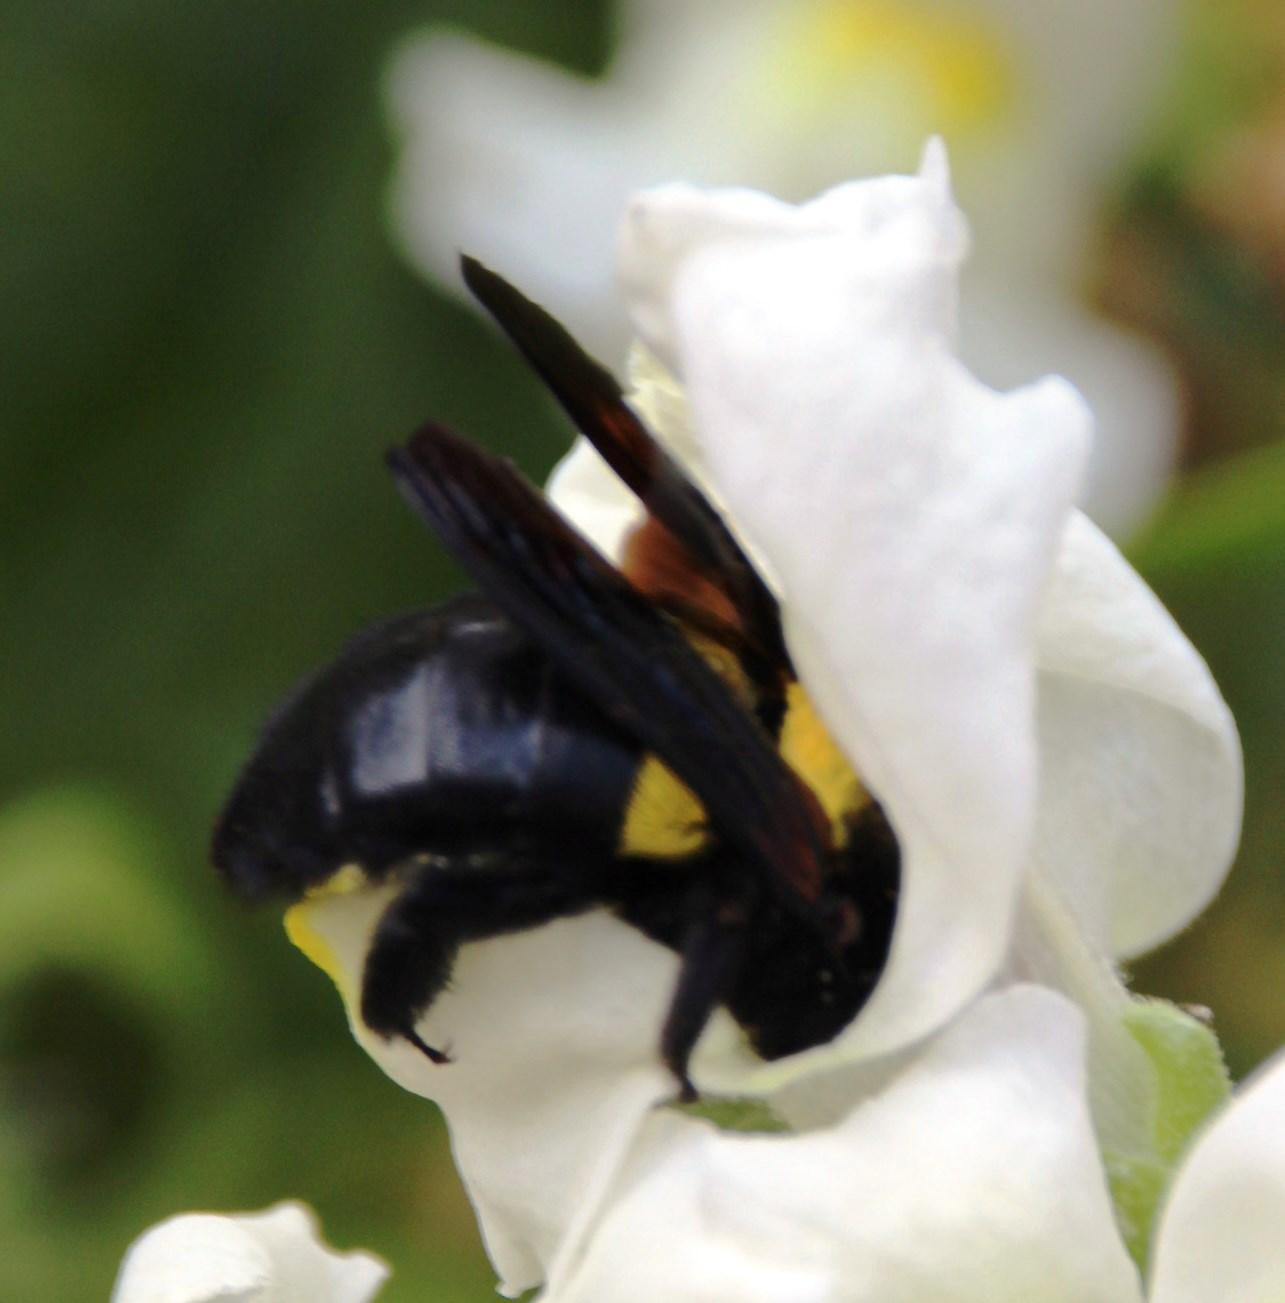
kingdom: Animalia
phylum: Arthropoda
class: Insecta
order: Hymenoptera
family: Apidae
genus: Xylocopa
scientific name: Xylocopa caffra
